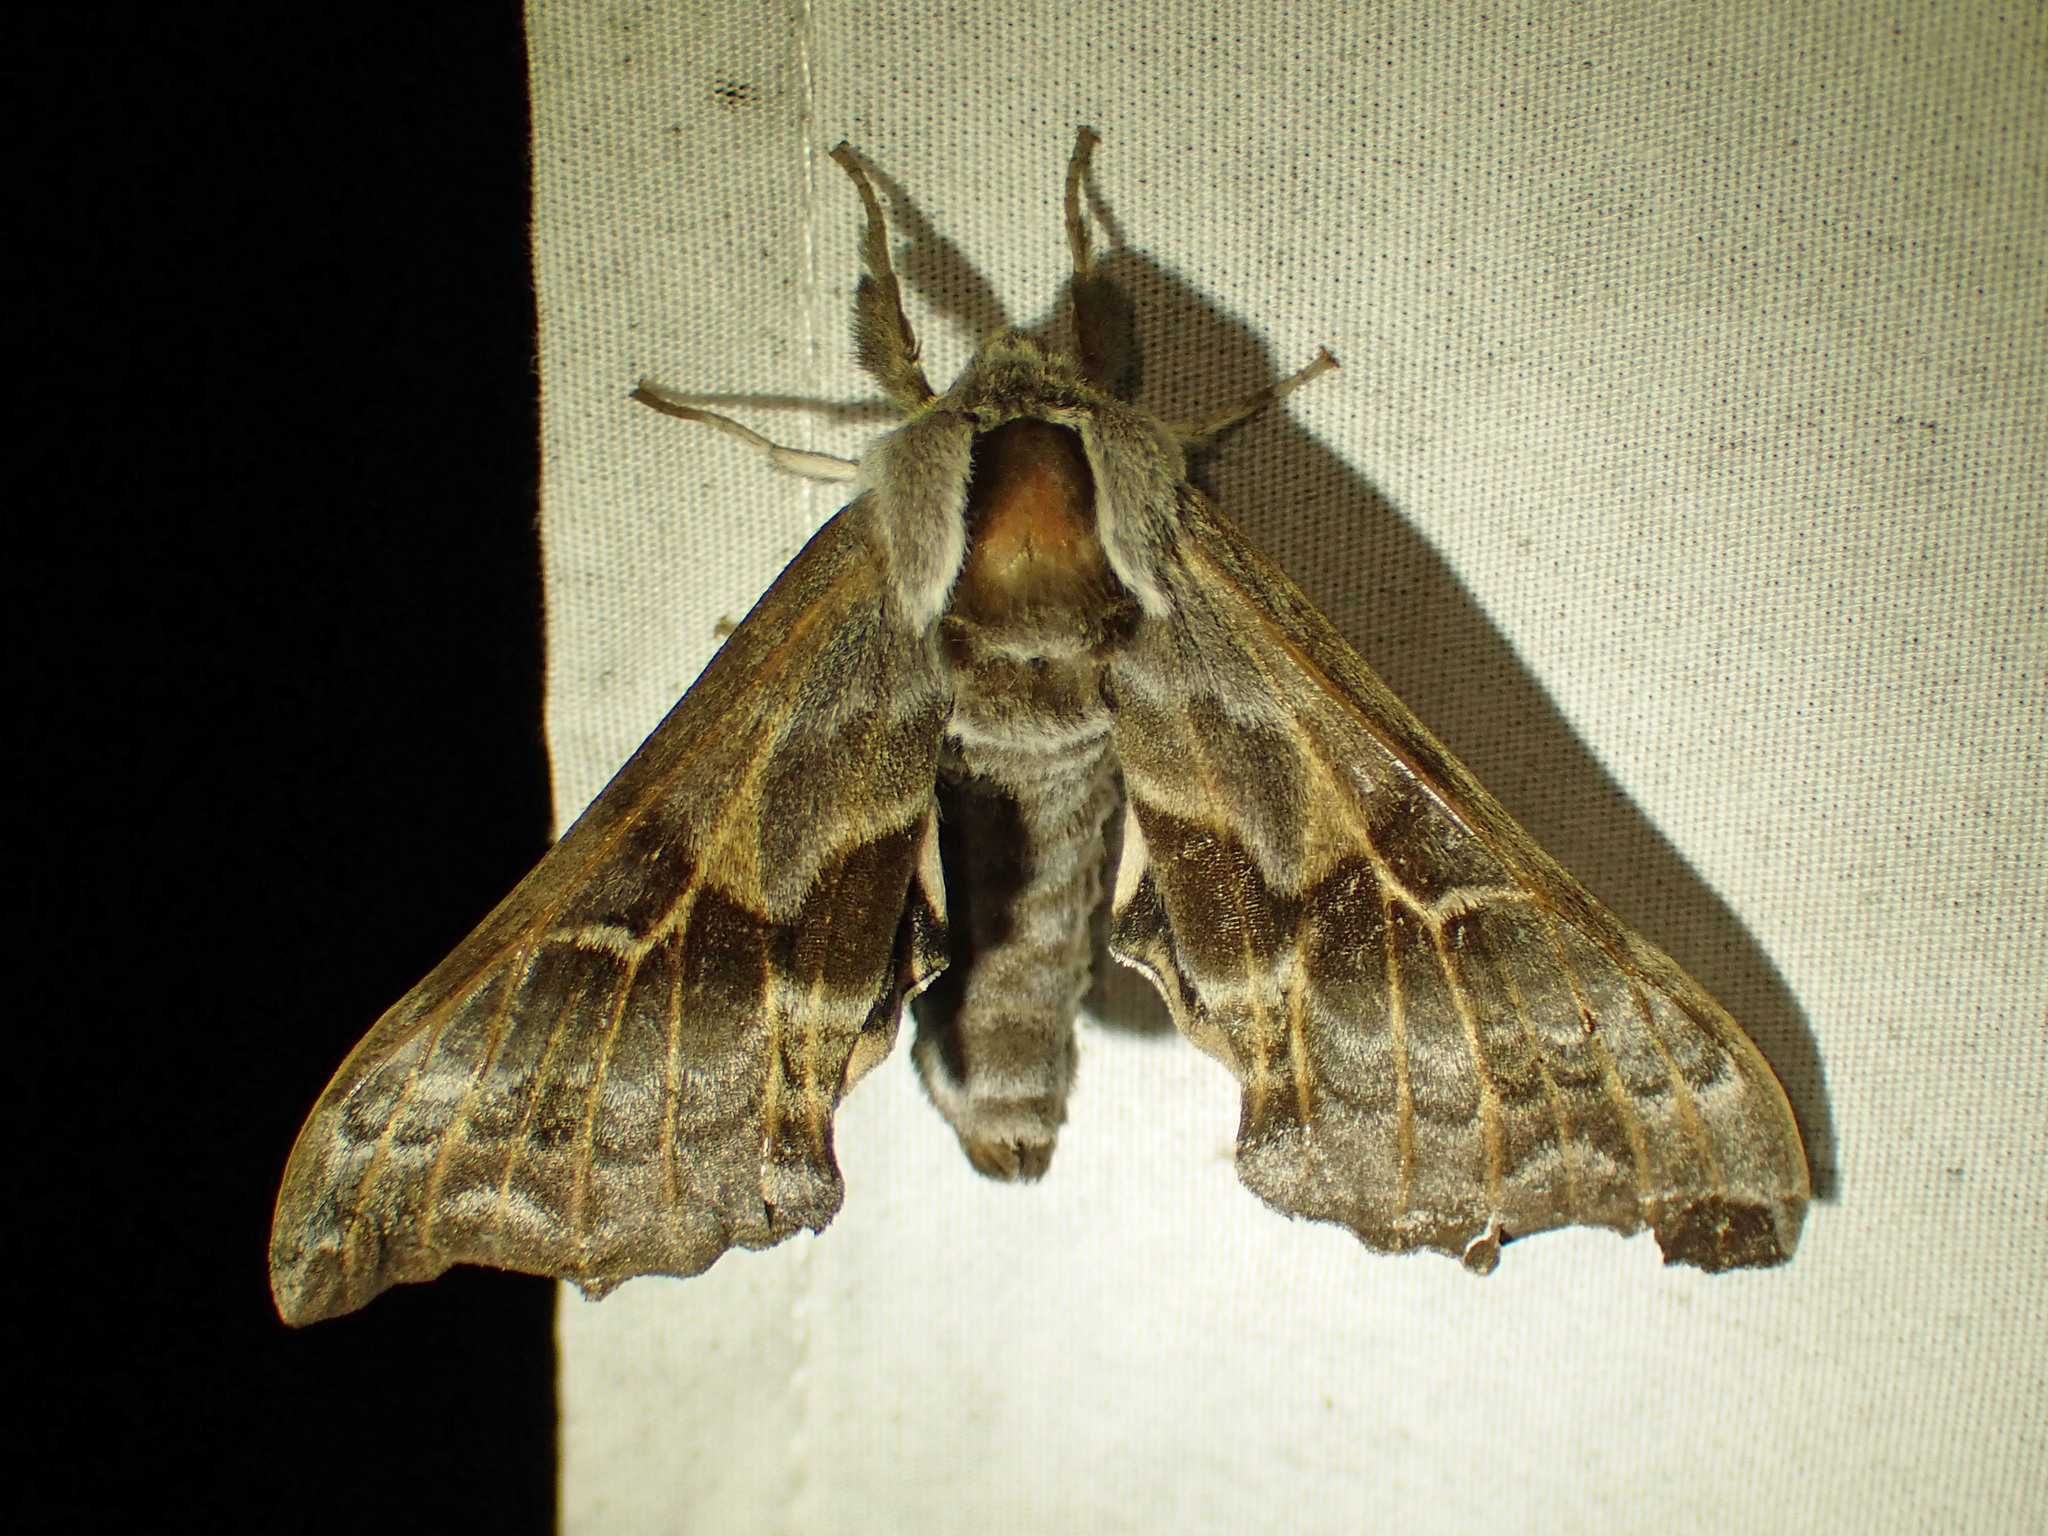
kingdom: Animalia
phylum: Arthropoda
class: Insecta
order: Lepidoptera
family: Sphingidae
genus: Smerinthus
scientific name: Smerinthus cerisyi
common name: Cerisy's sphinx moth
